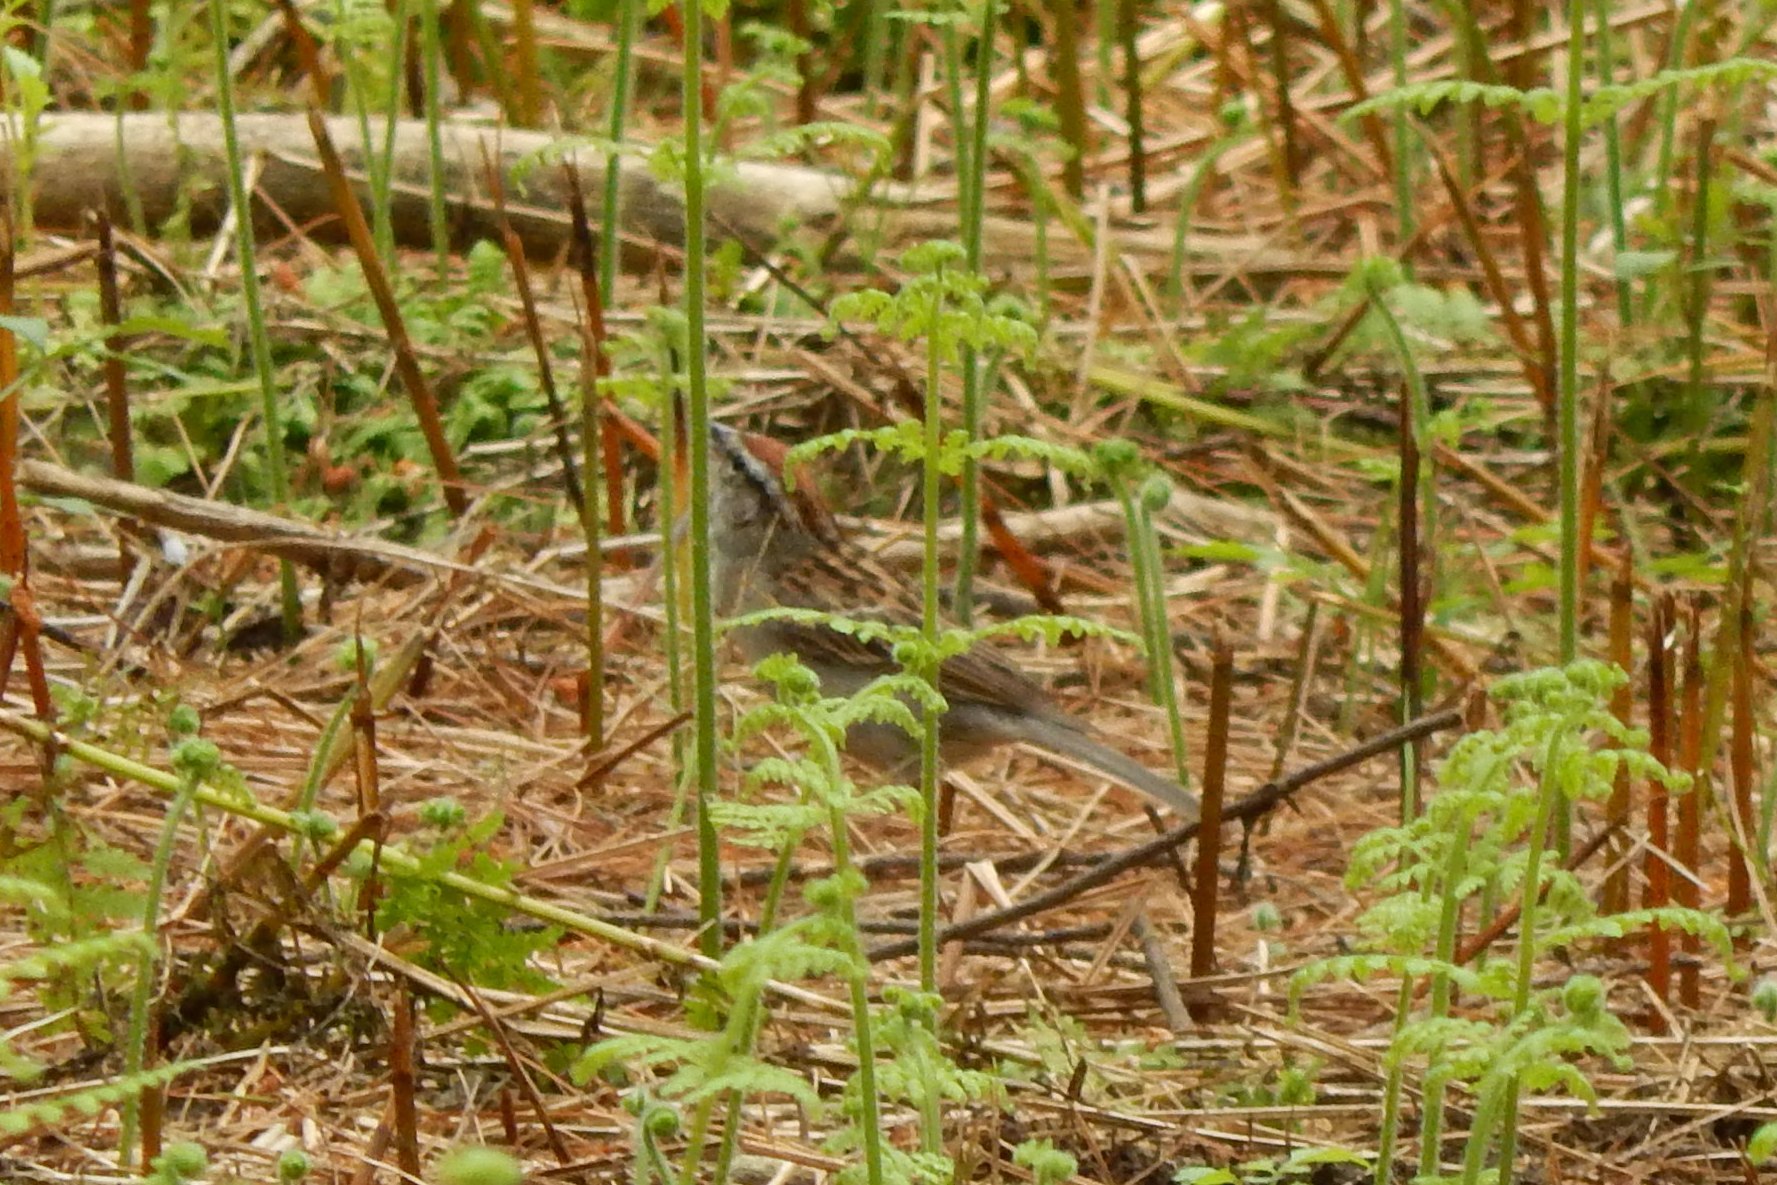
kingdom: Animalia
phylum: Chordata
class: Aves
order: Passeriformes
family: Passerellidae
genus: Spizella
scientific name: Spizella passerina
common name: Chipping sparrow
